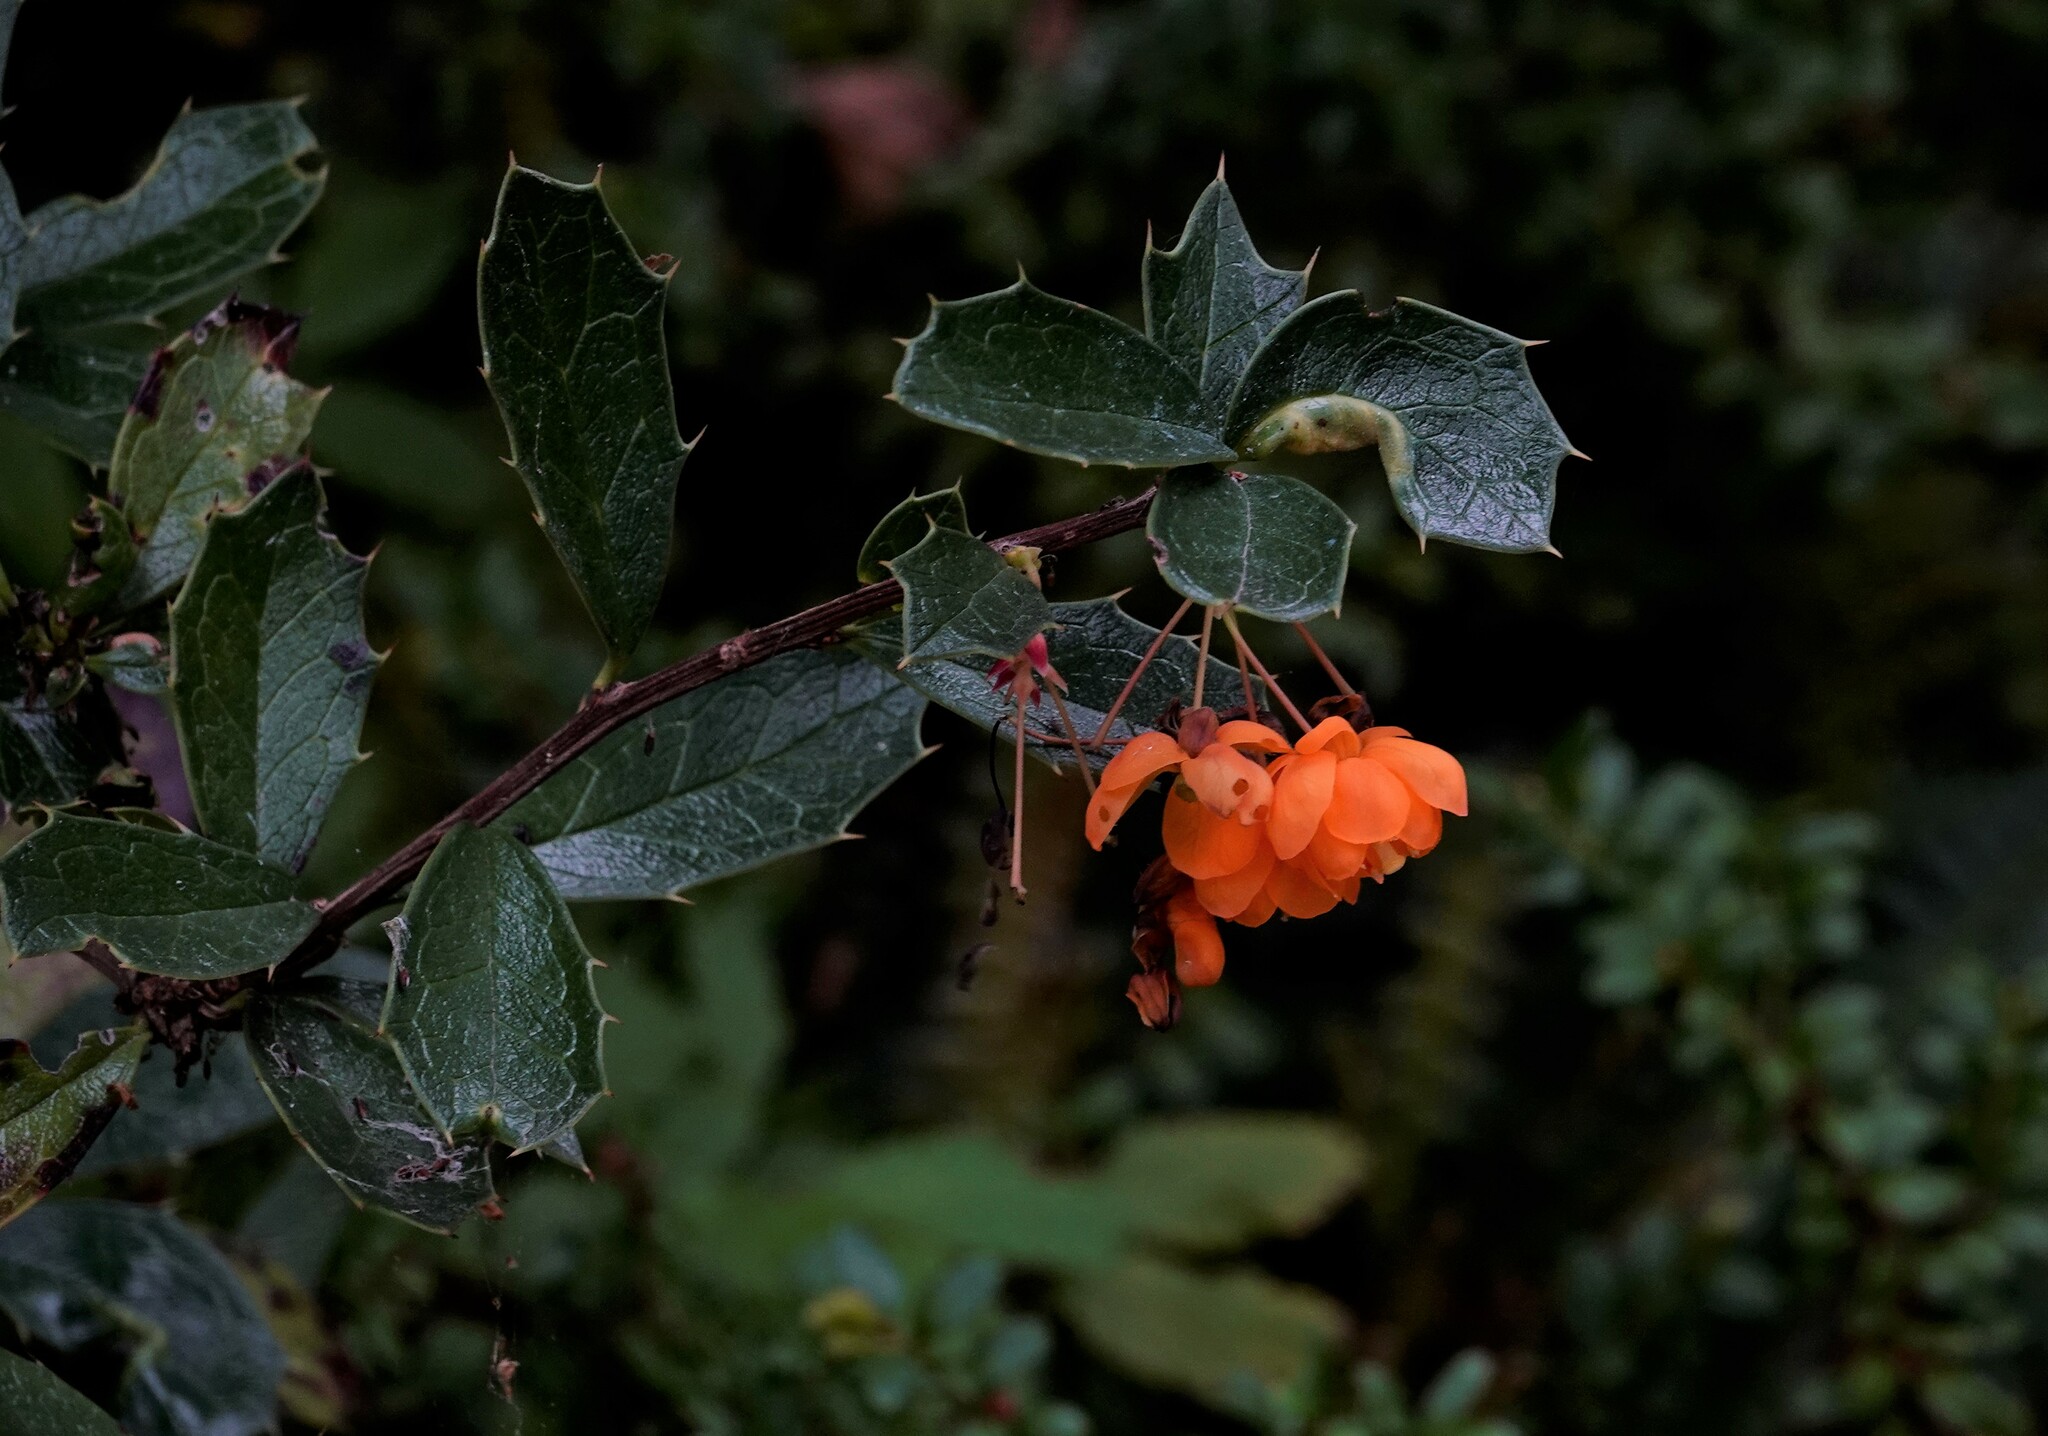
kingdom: Plantae
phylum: Tracheophyta
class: Magnoliopsida
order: Ranunculales
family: Berberidaceae
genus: Berberis
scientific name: Berberis ilicifolia
